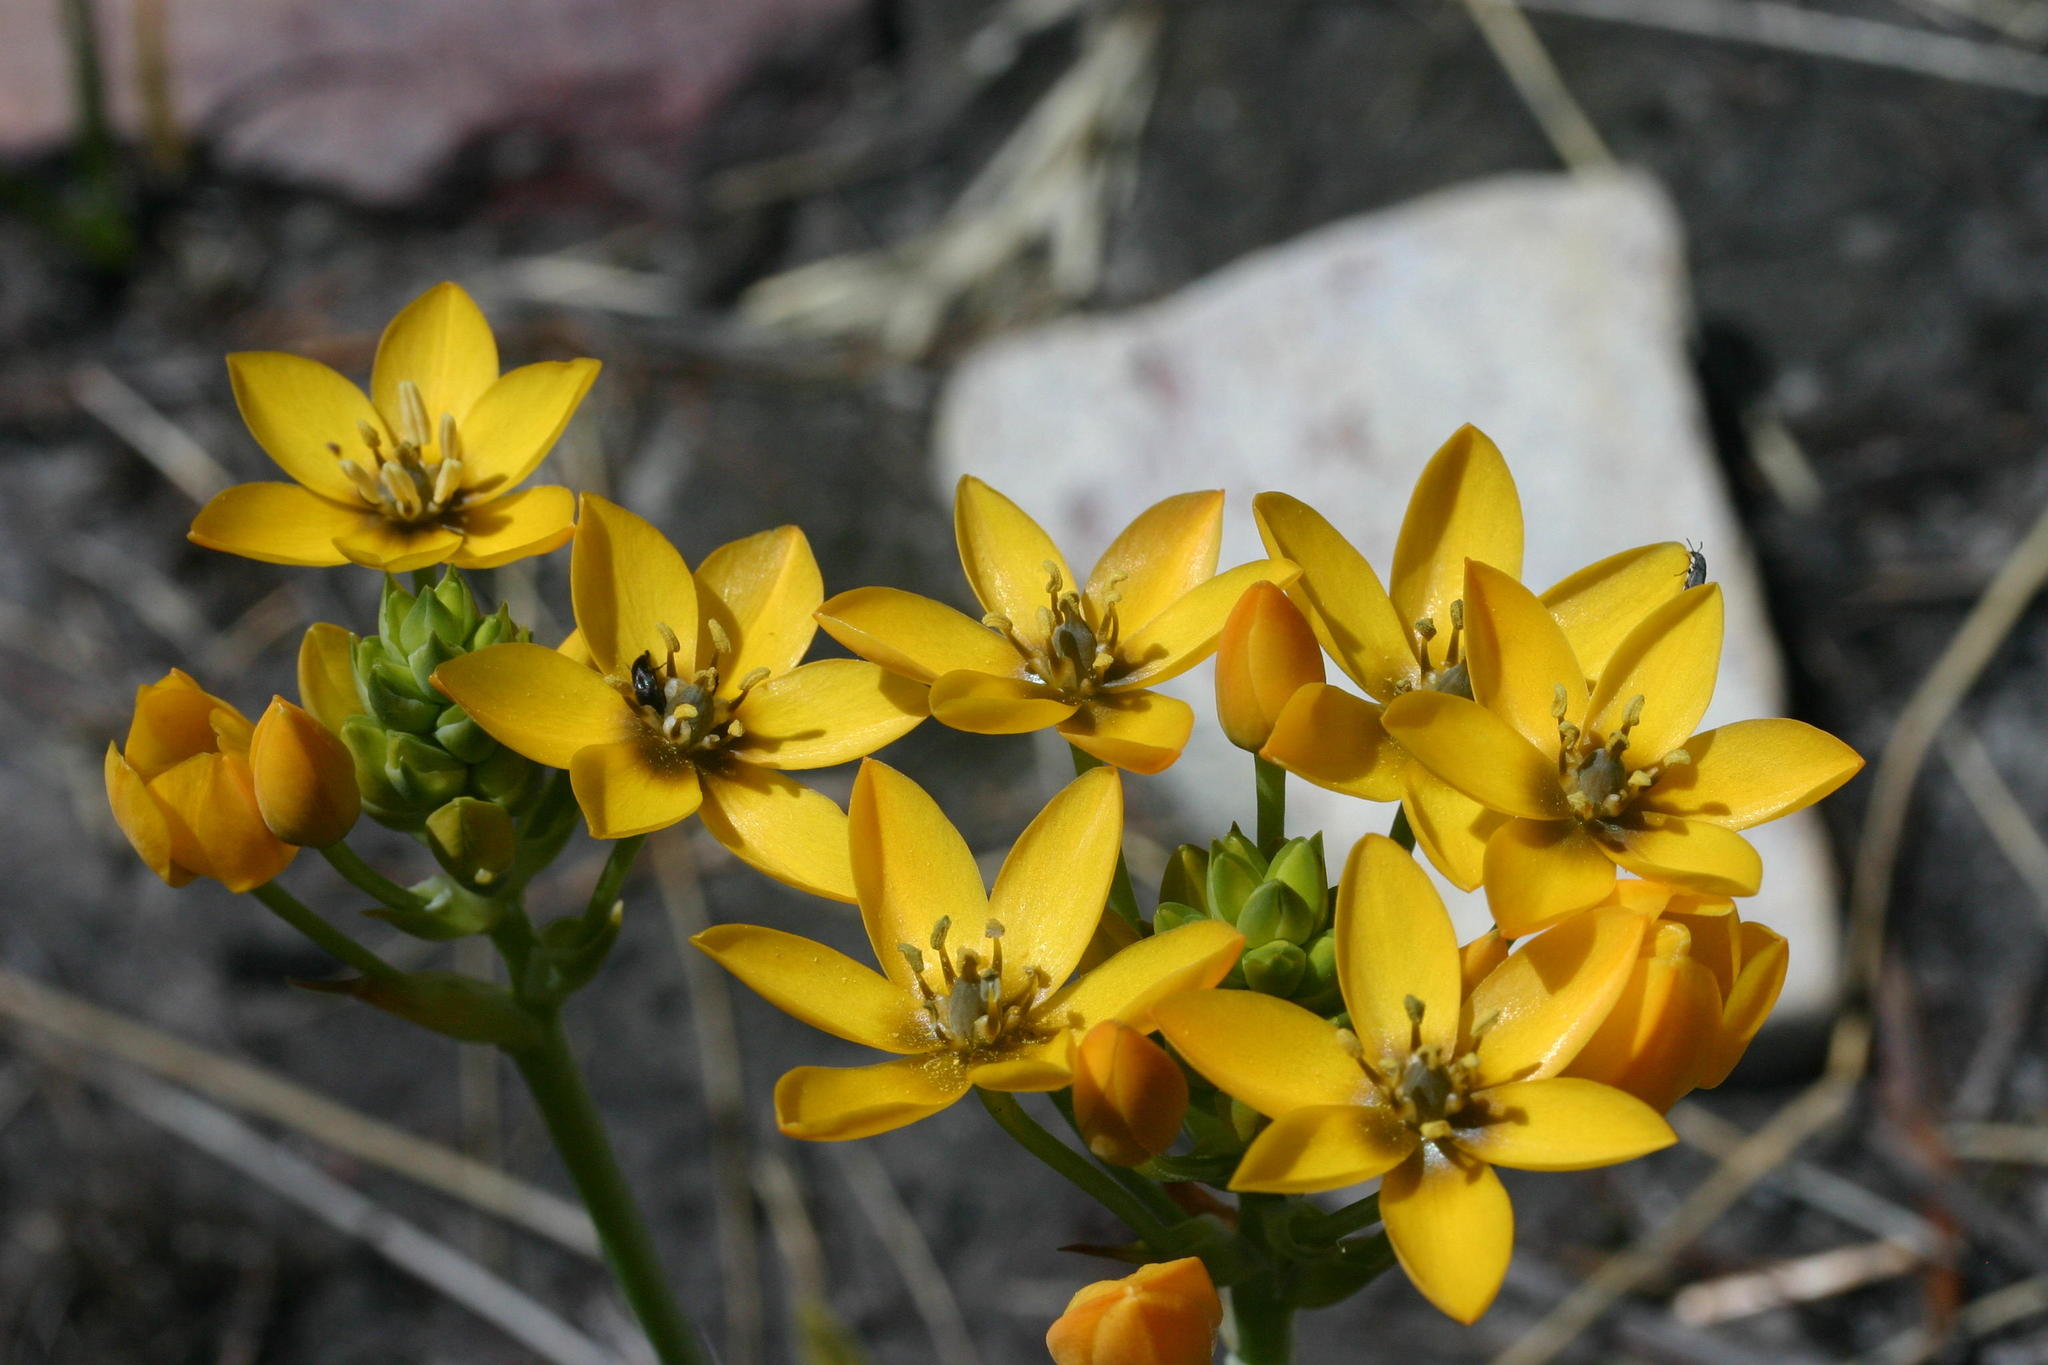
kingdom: Plantae
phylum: Tracheophyta
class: Liliopsida
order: Asparagales
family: Asparagaceae
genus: Ornithogalum
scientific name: Ornithogalum dubium
